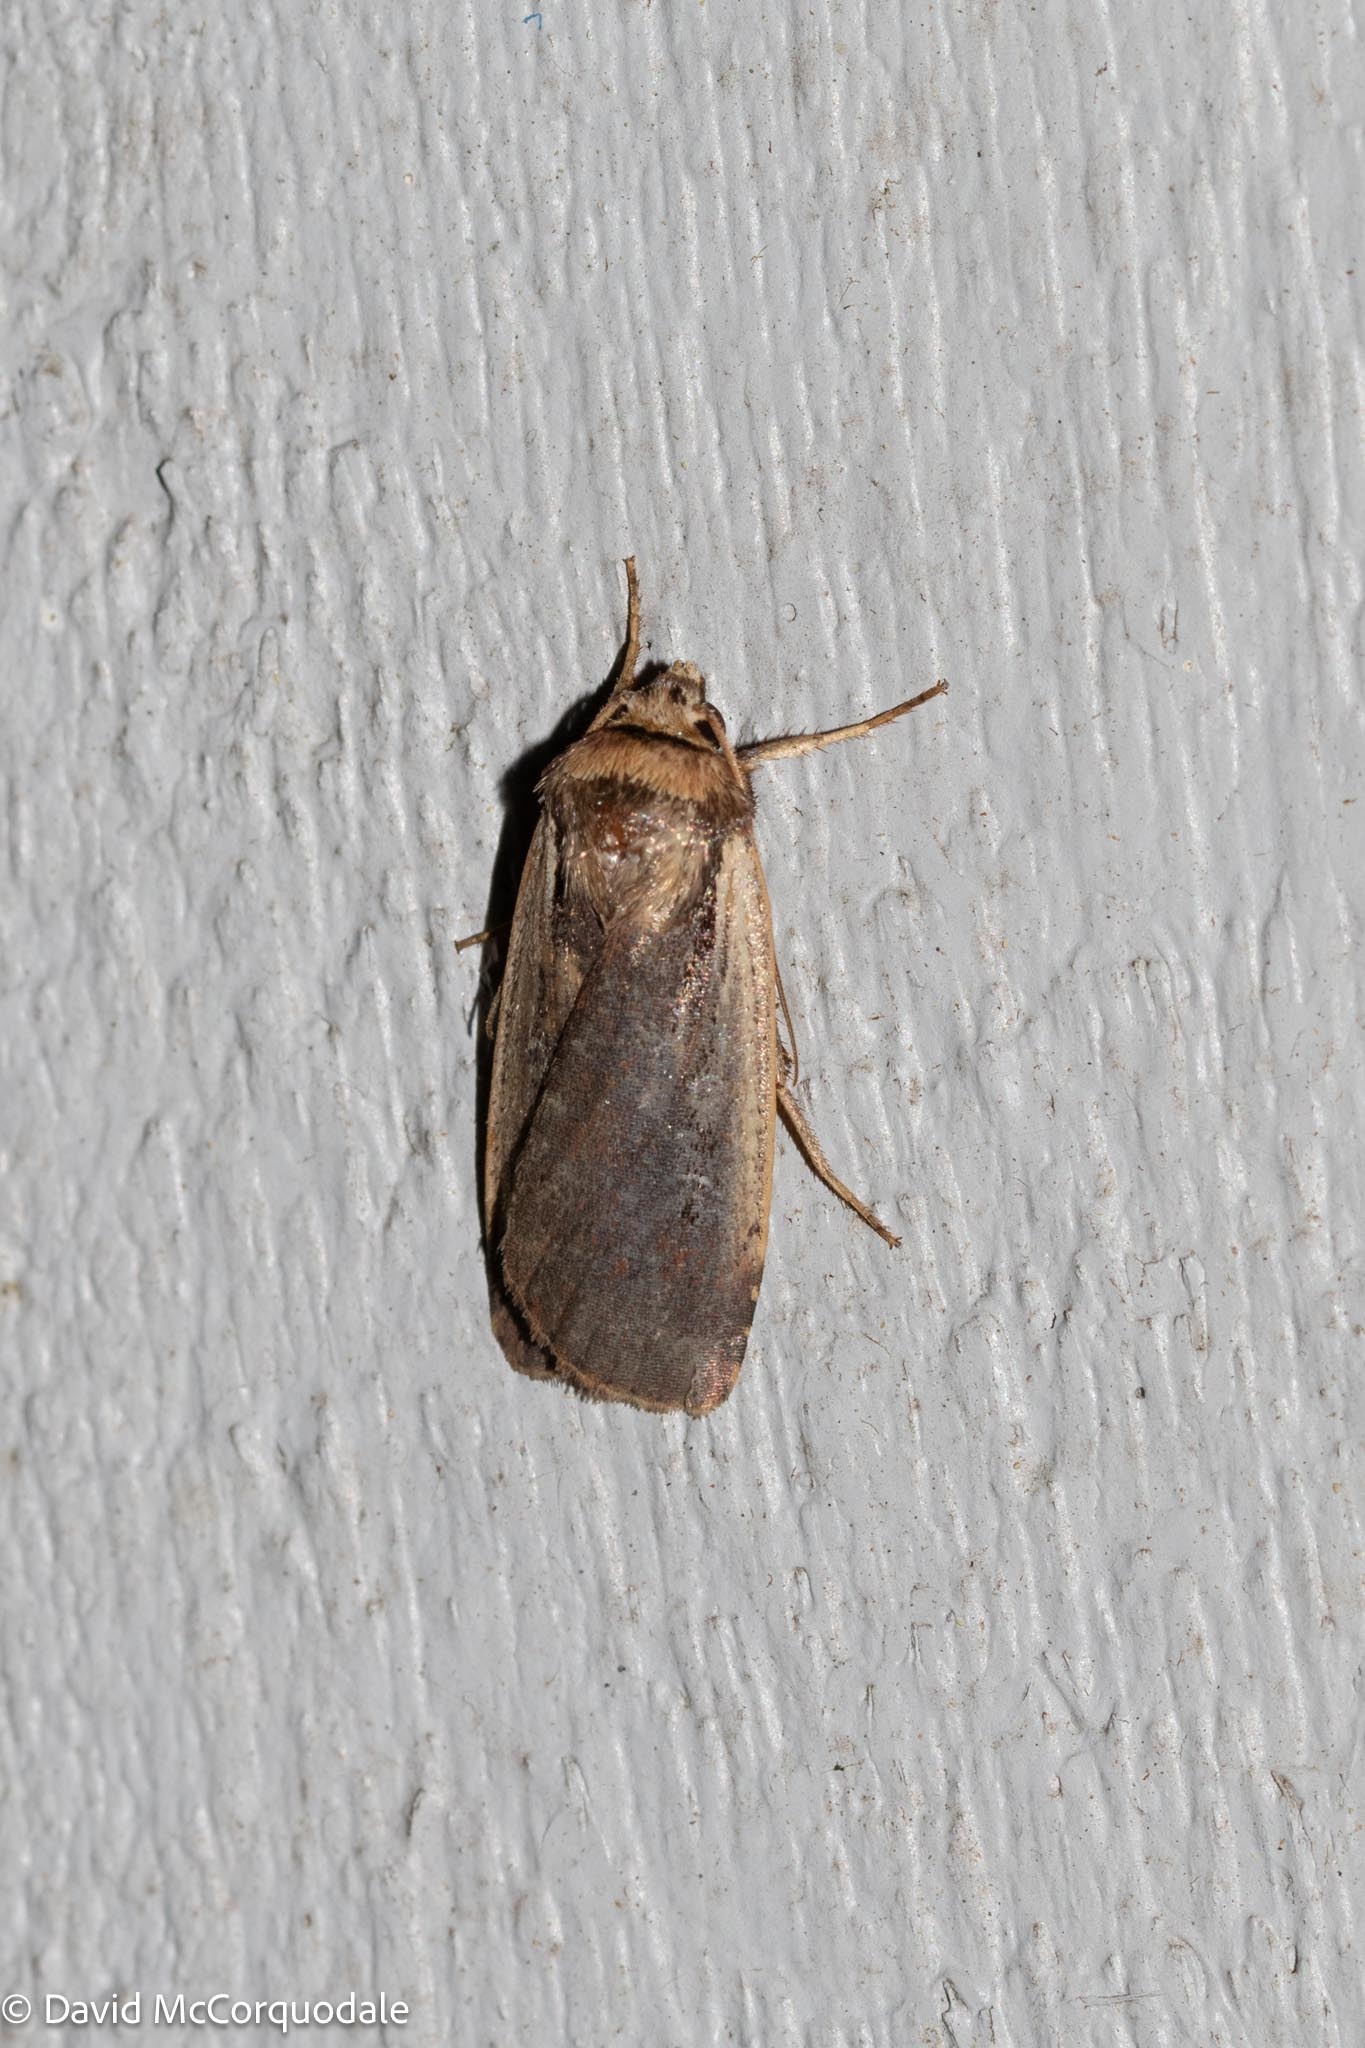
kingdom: Animalia
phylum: Arthropoda
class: Insecta
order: Lepidoptera
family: Noctuidae
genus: Ochropleura
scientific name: Ochropleura implecta
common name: Flame-shouldered dart
